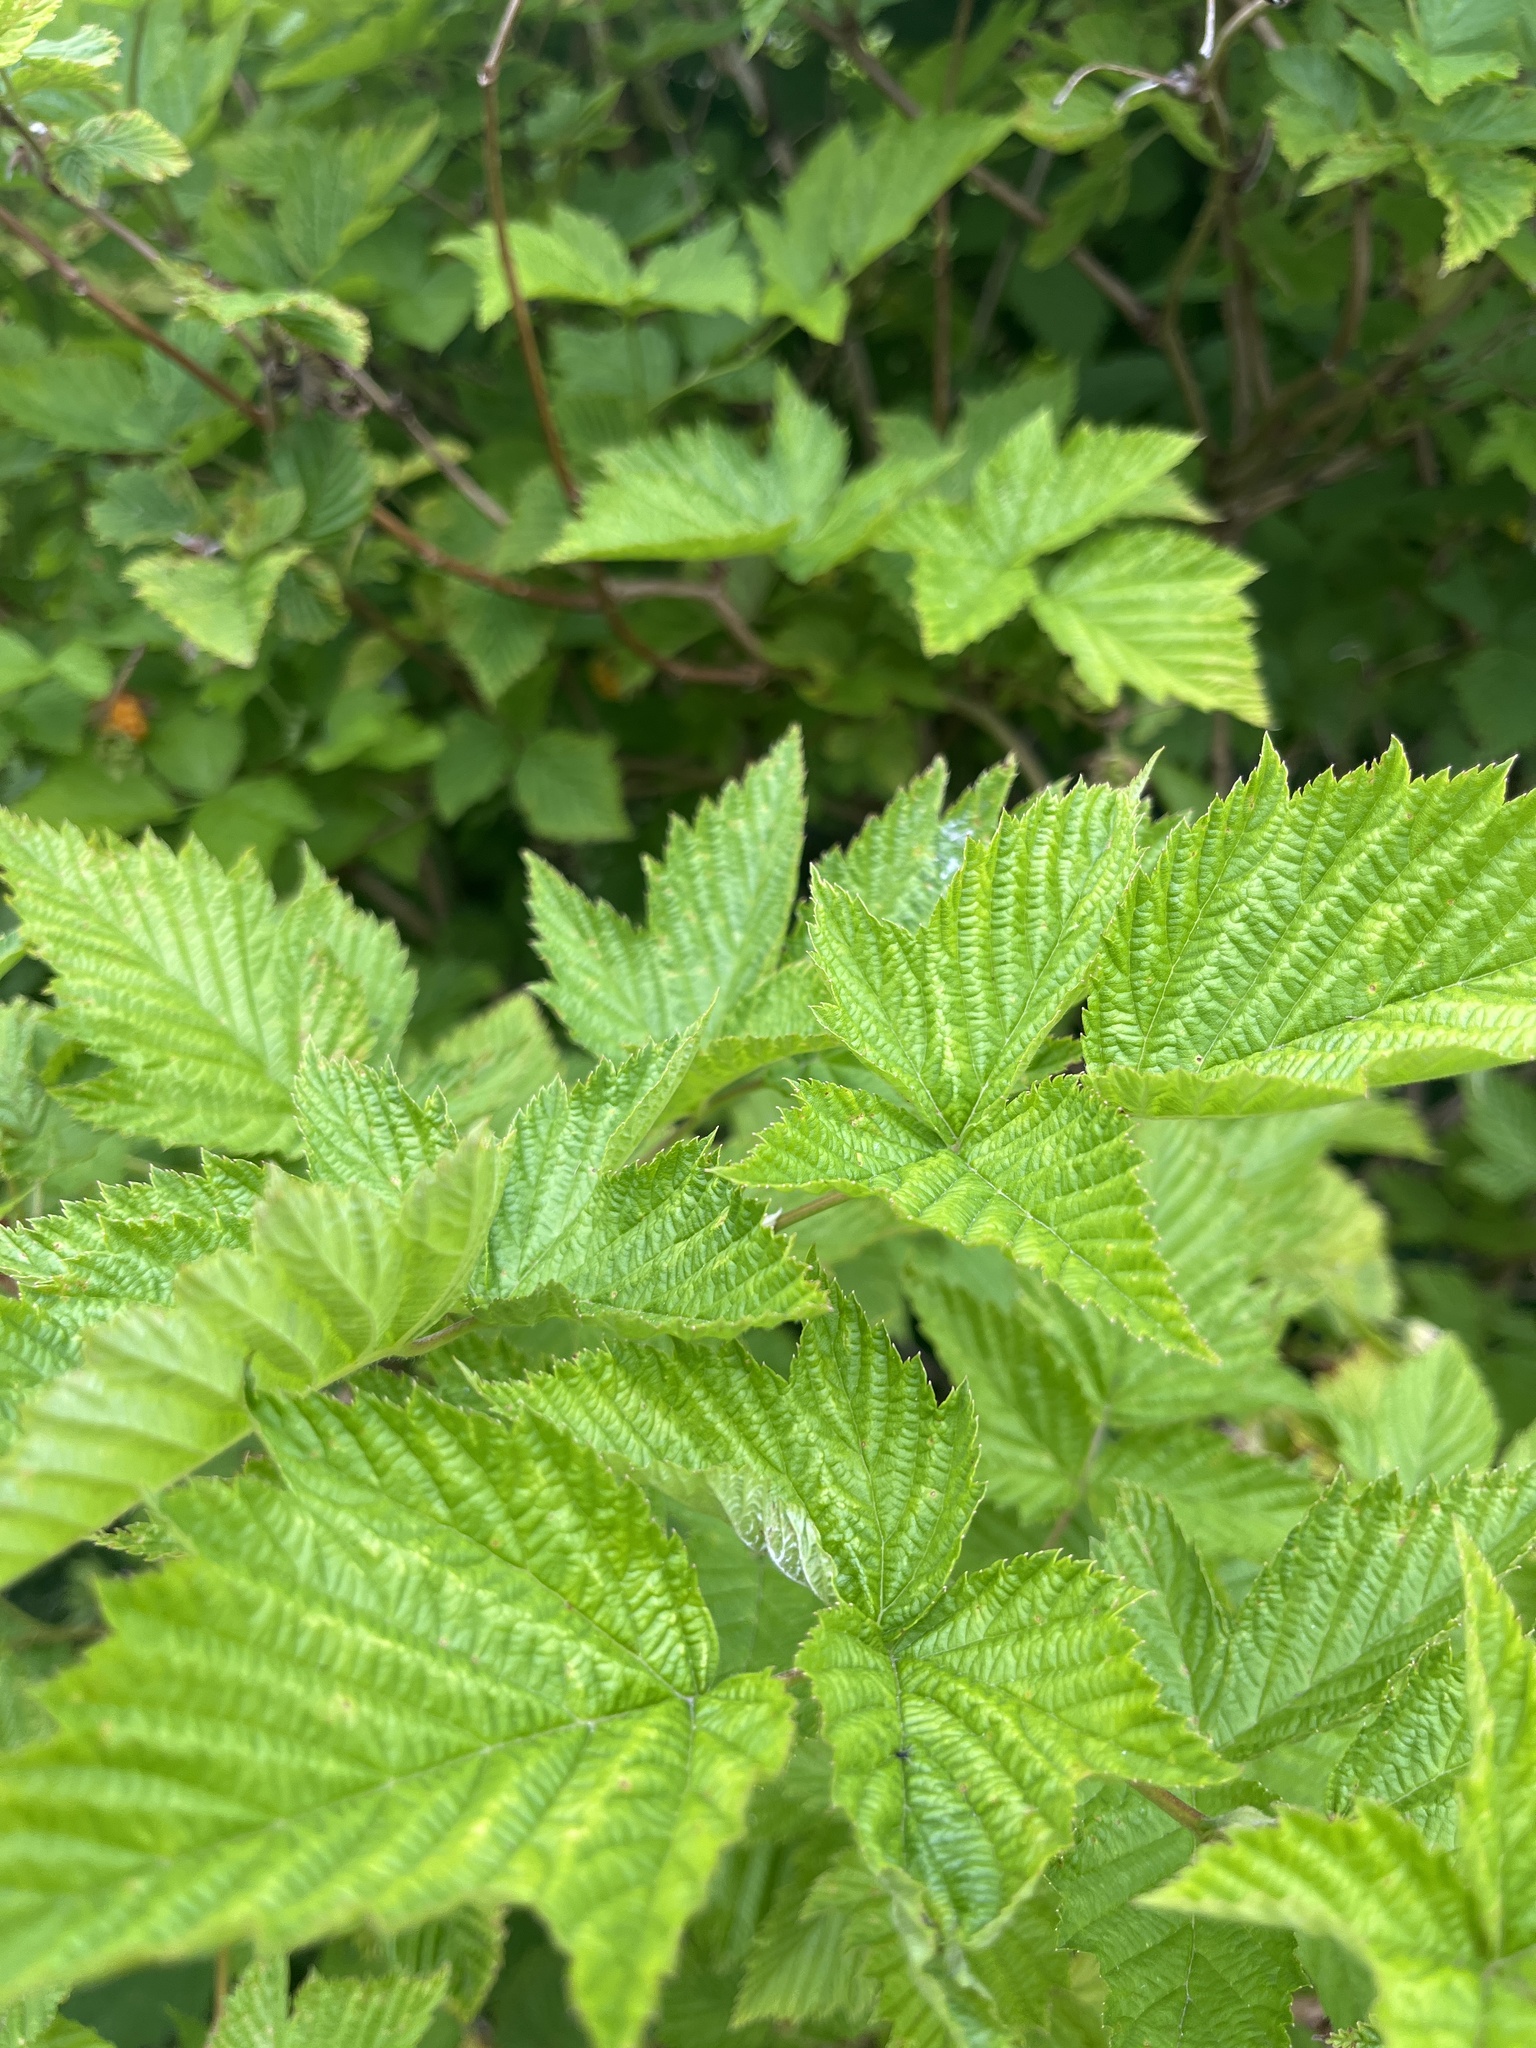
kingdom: Plantae
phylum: Tracheophyta
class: Magnoliopsida
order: Rosales
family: Rosaceae
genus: Rubus
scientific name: Rubus spectabilis
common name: Salmonberry
